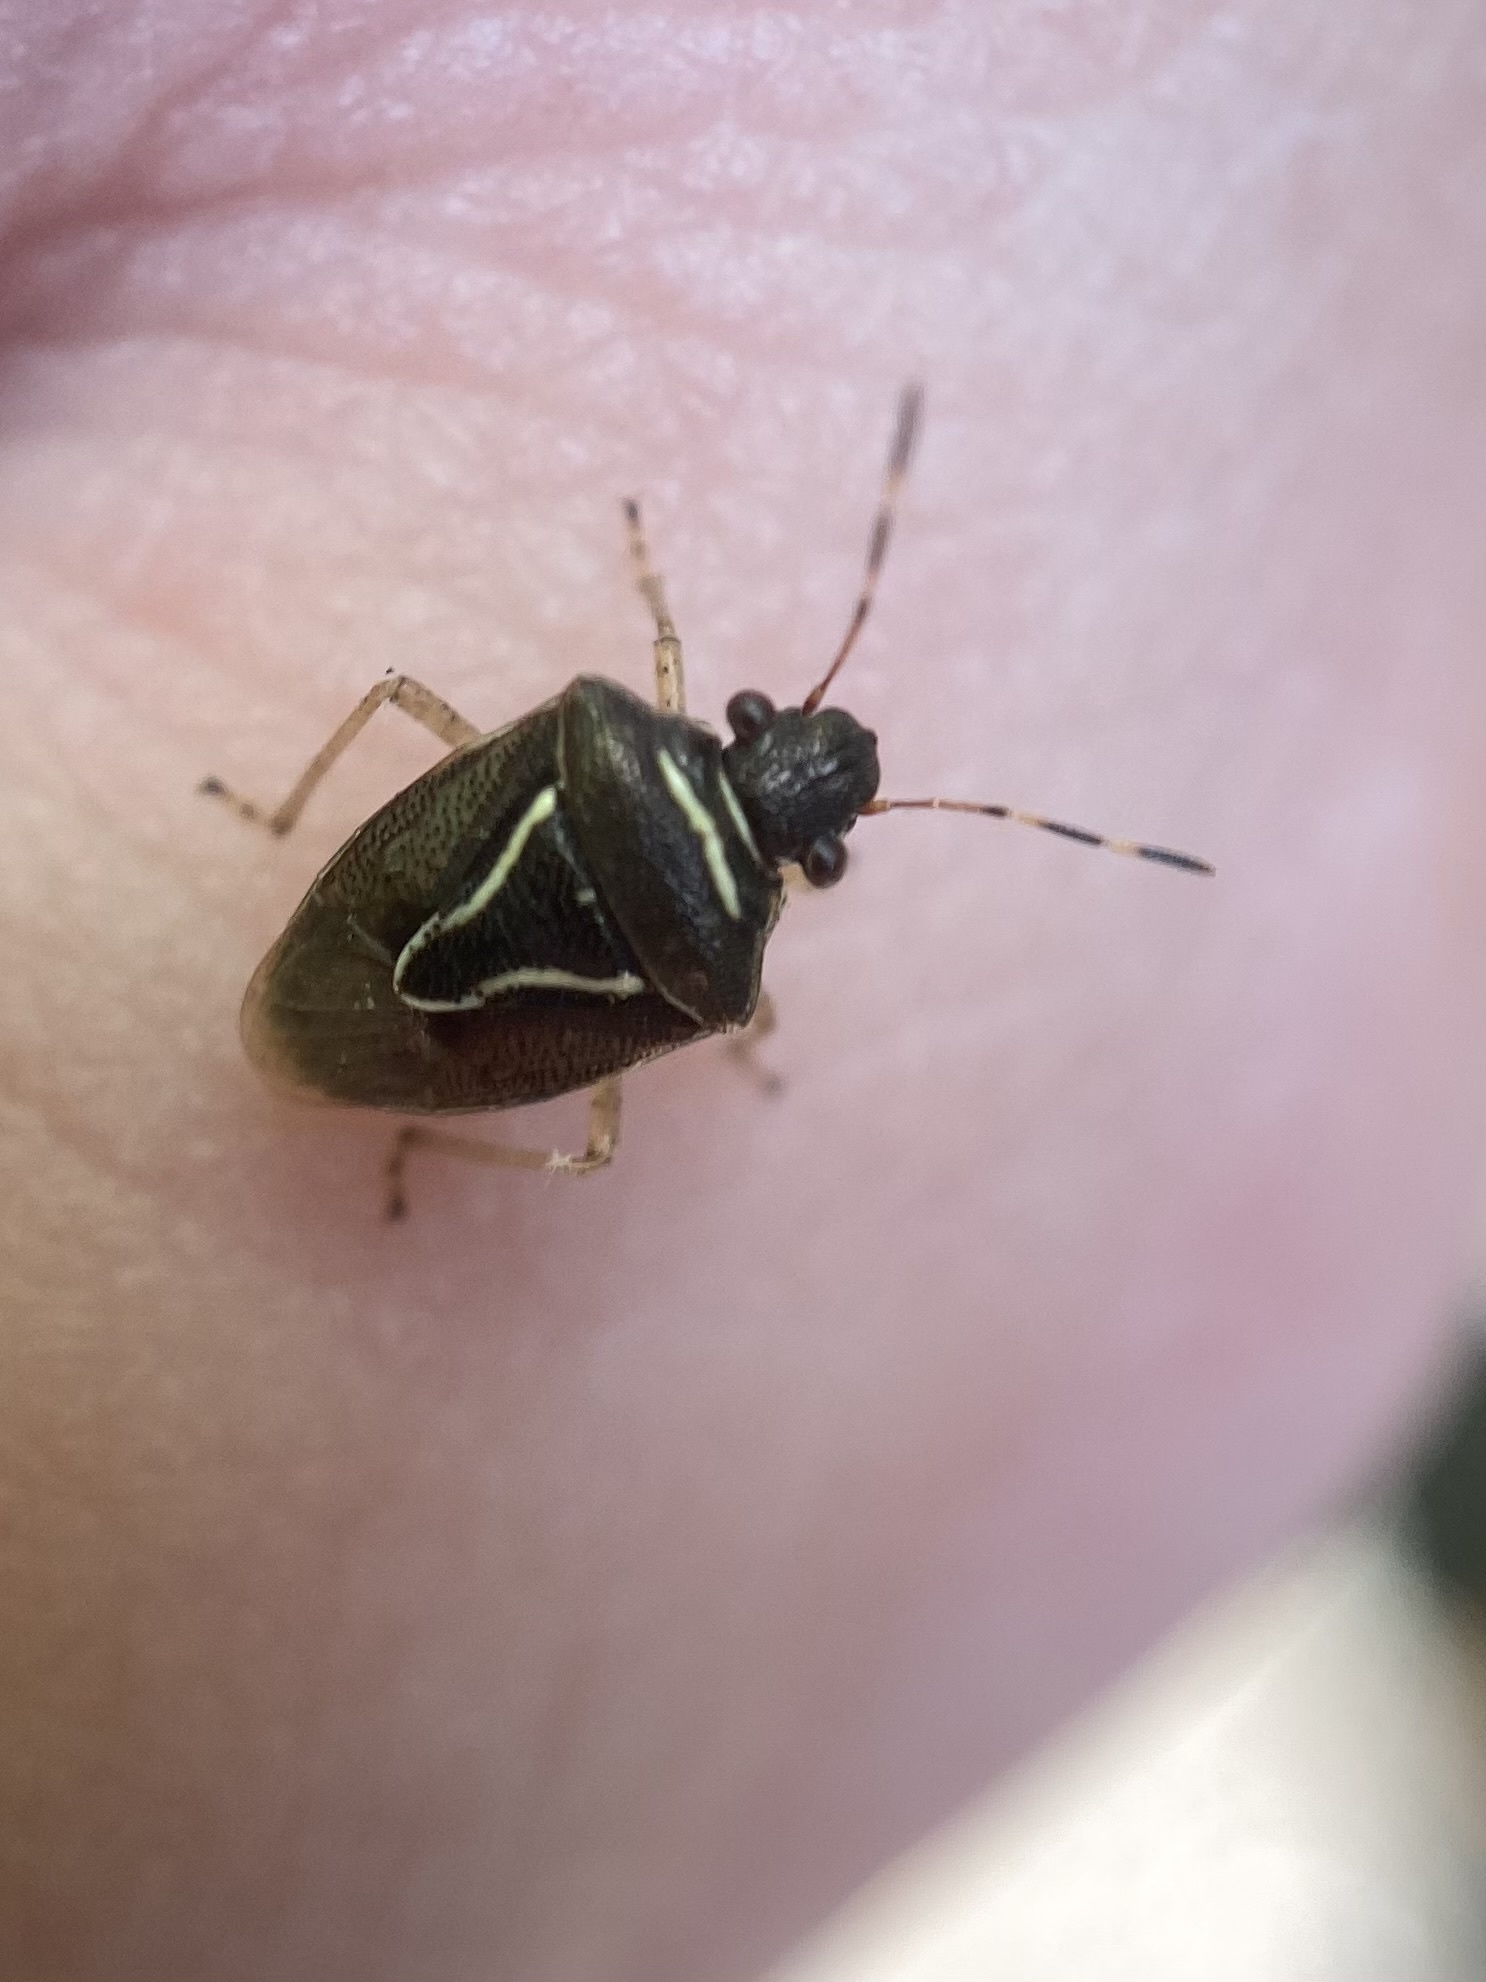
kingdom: Animalia
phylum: Arthropoda
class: Insecta
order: Hemiptera
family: Pentatomidae
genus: Mormidea
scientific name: Mormidea lugens
